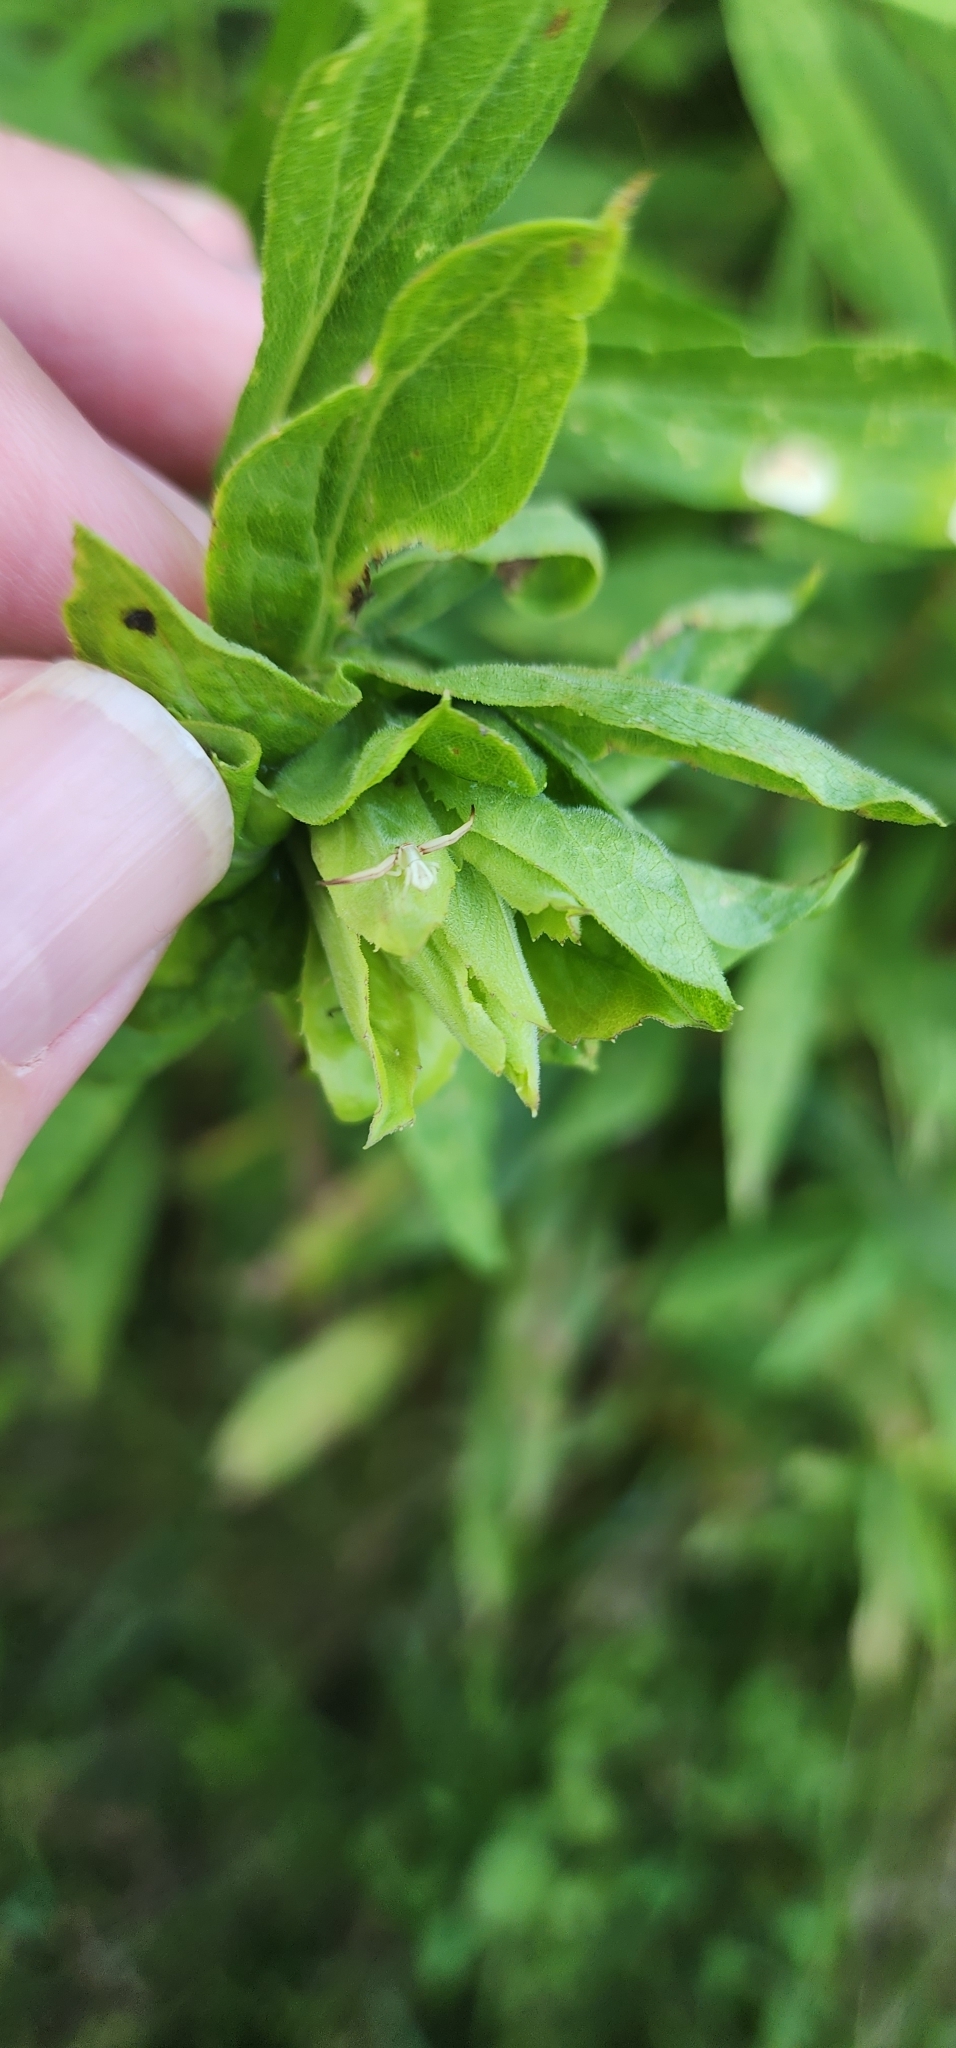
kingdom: Animalia
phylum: Arthropoda
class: Arachnida
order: Araneae
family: Thomisidae
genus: Misumenoides
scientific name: Misumenoides formosipes
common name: White-banded crab spider
